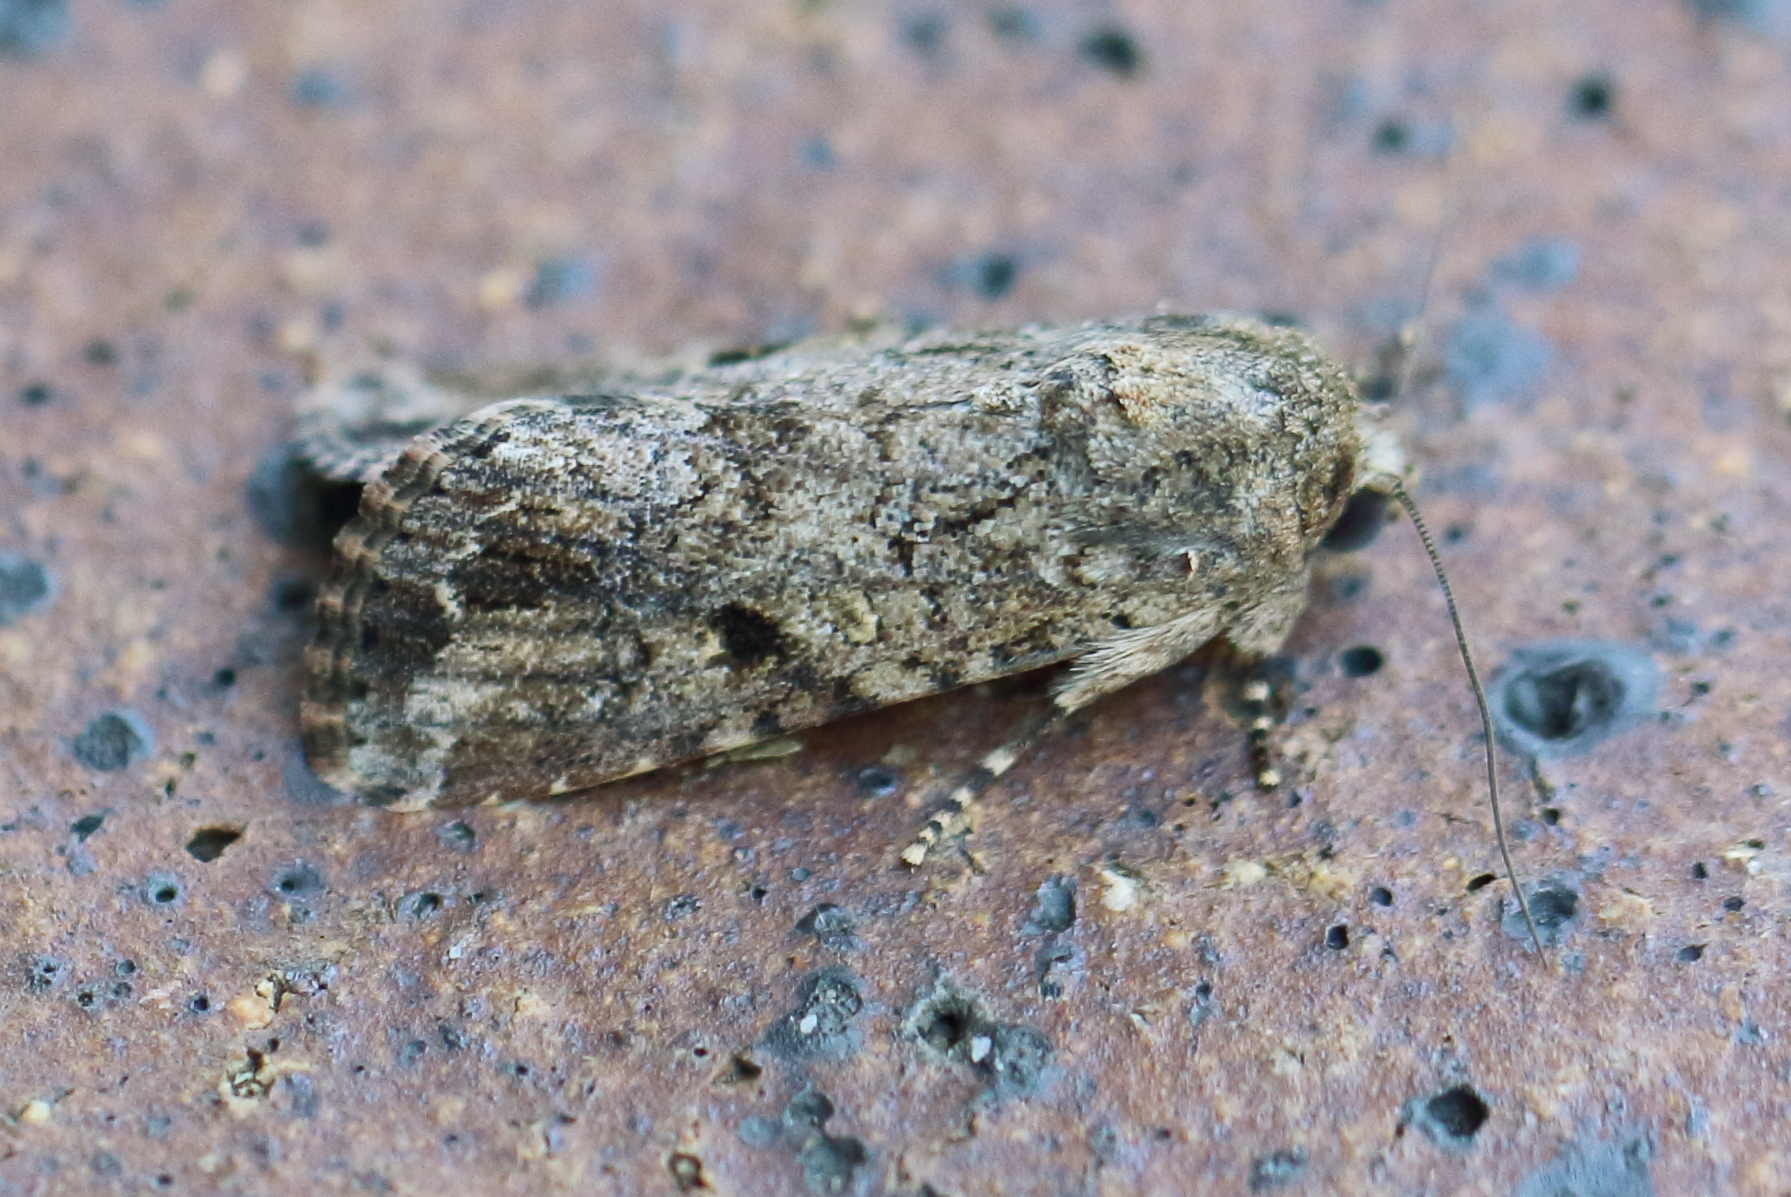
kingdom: Animalia
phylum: Arthropoda
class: Insecta
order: Lepidoptera
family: Noctuidae
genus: Spodoptera
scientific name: Spodoptera mauritia
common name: Lawn armyworm
